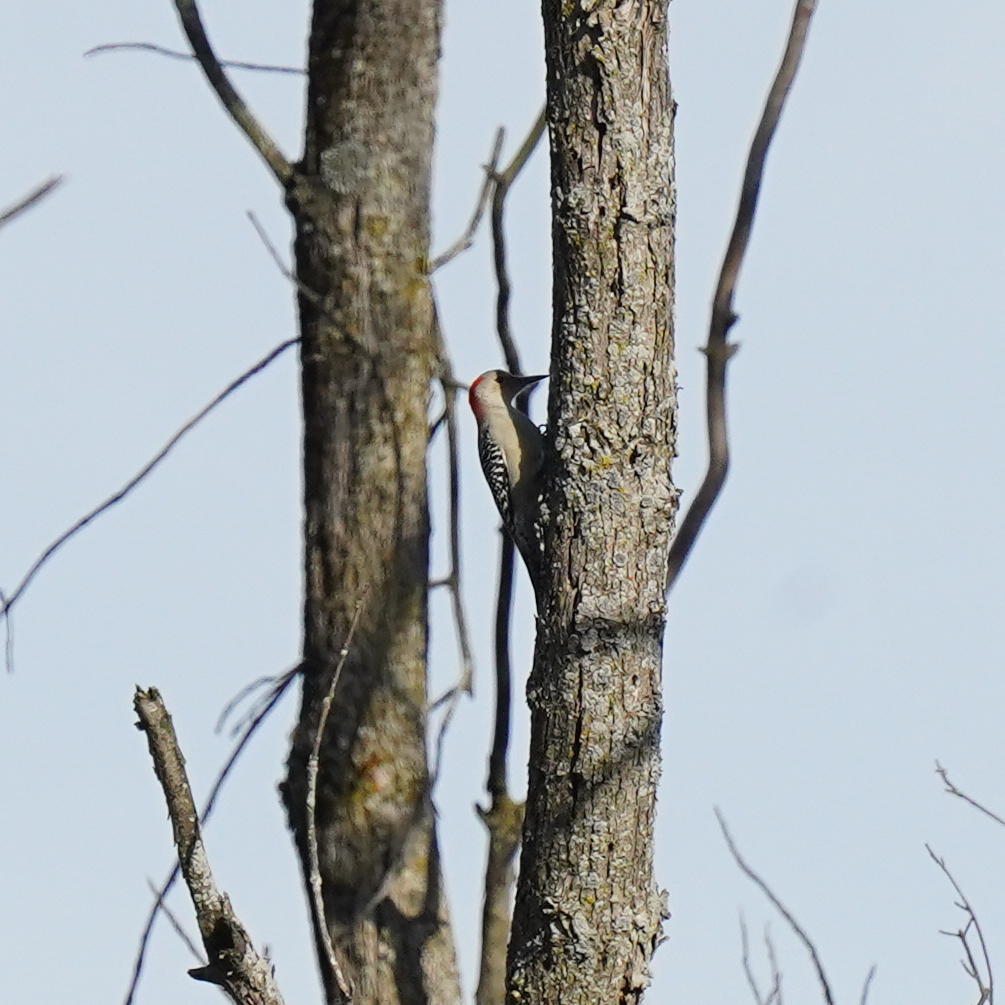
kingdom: Animalia
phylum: Chordata
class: Aves
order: Piciformes
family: Picidae
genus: Melanerpes
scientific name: Melanerpes carolinus
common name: Red-bellied woodpecker
